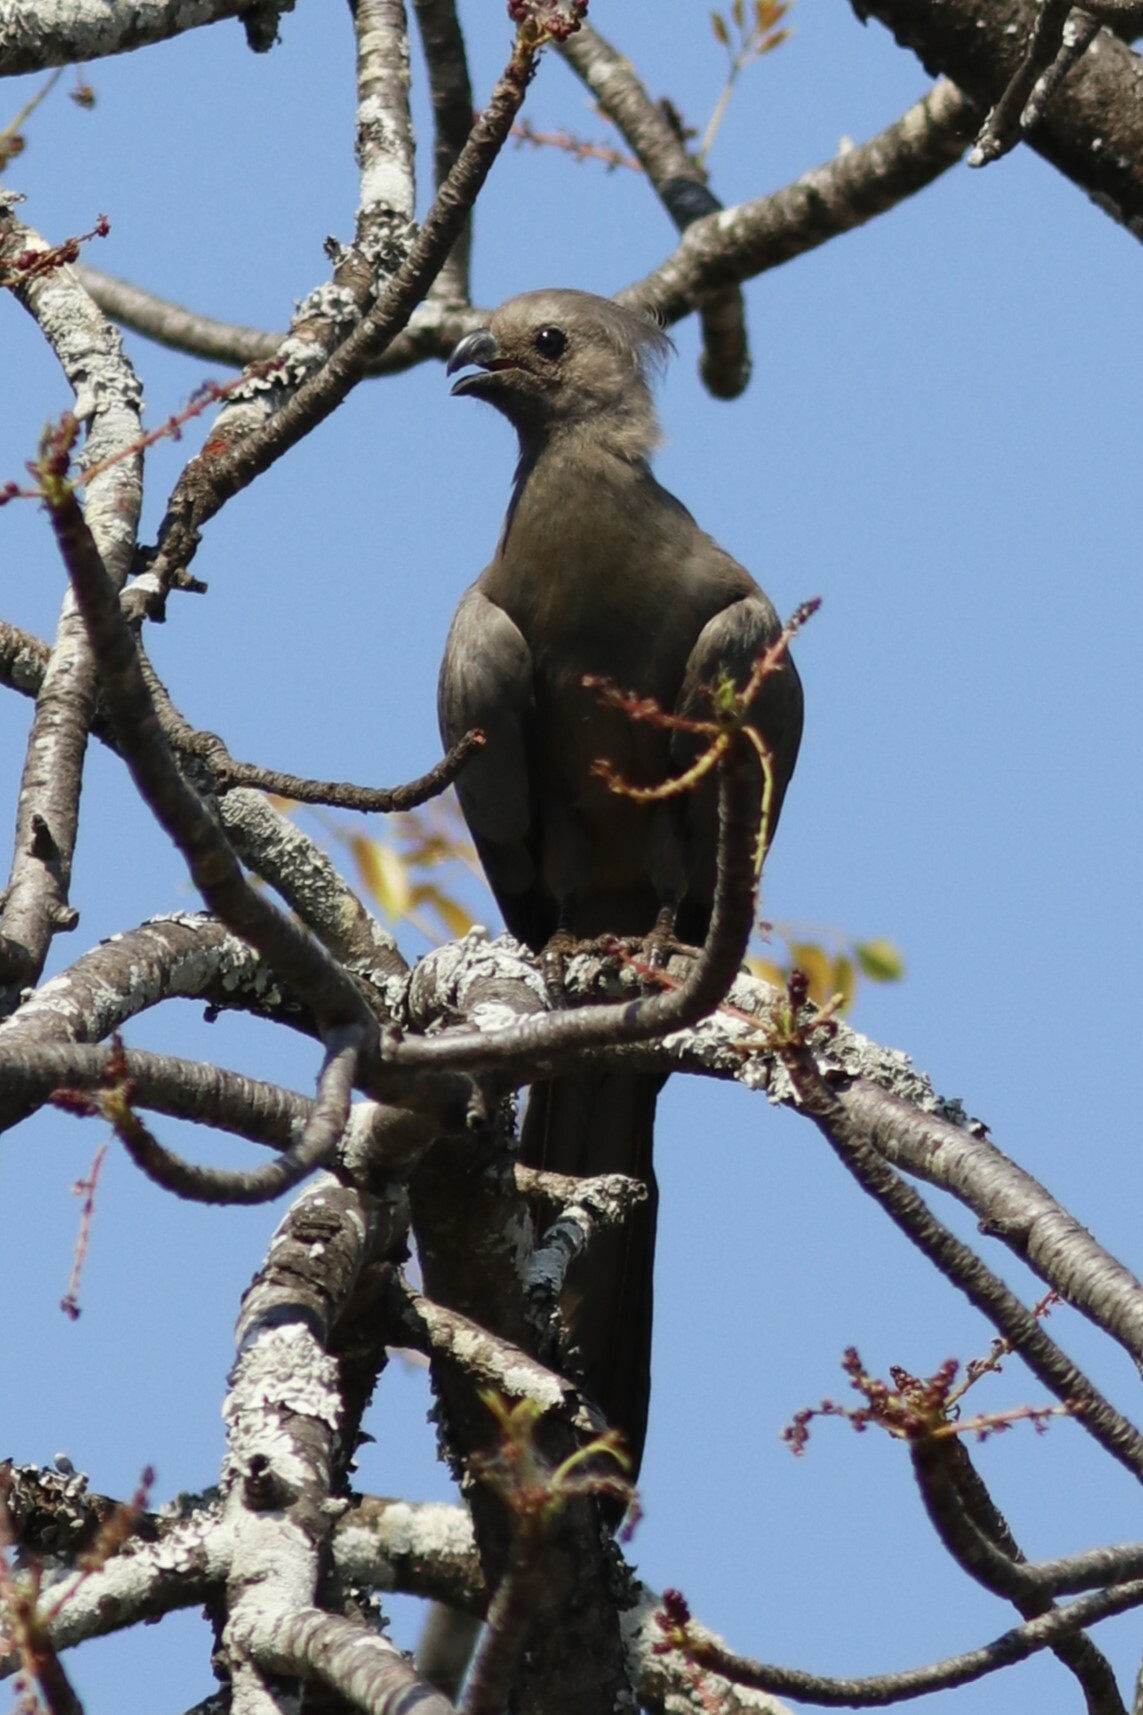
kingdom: Animalia
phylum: Chordata
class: Aves
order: Musophagiformes
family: Musophagidae
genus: Corythaixoides
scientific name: Corythaixoides concolor
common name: Grey go-away-bird
